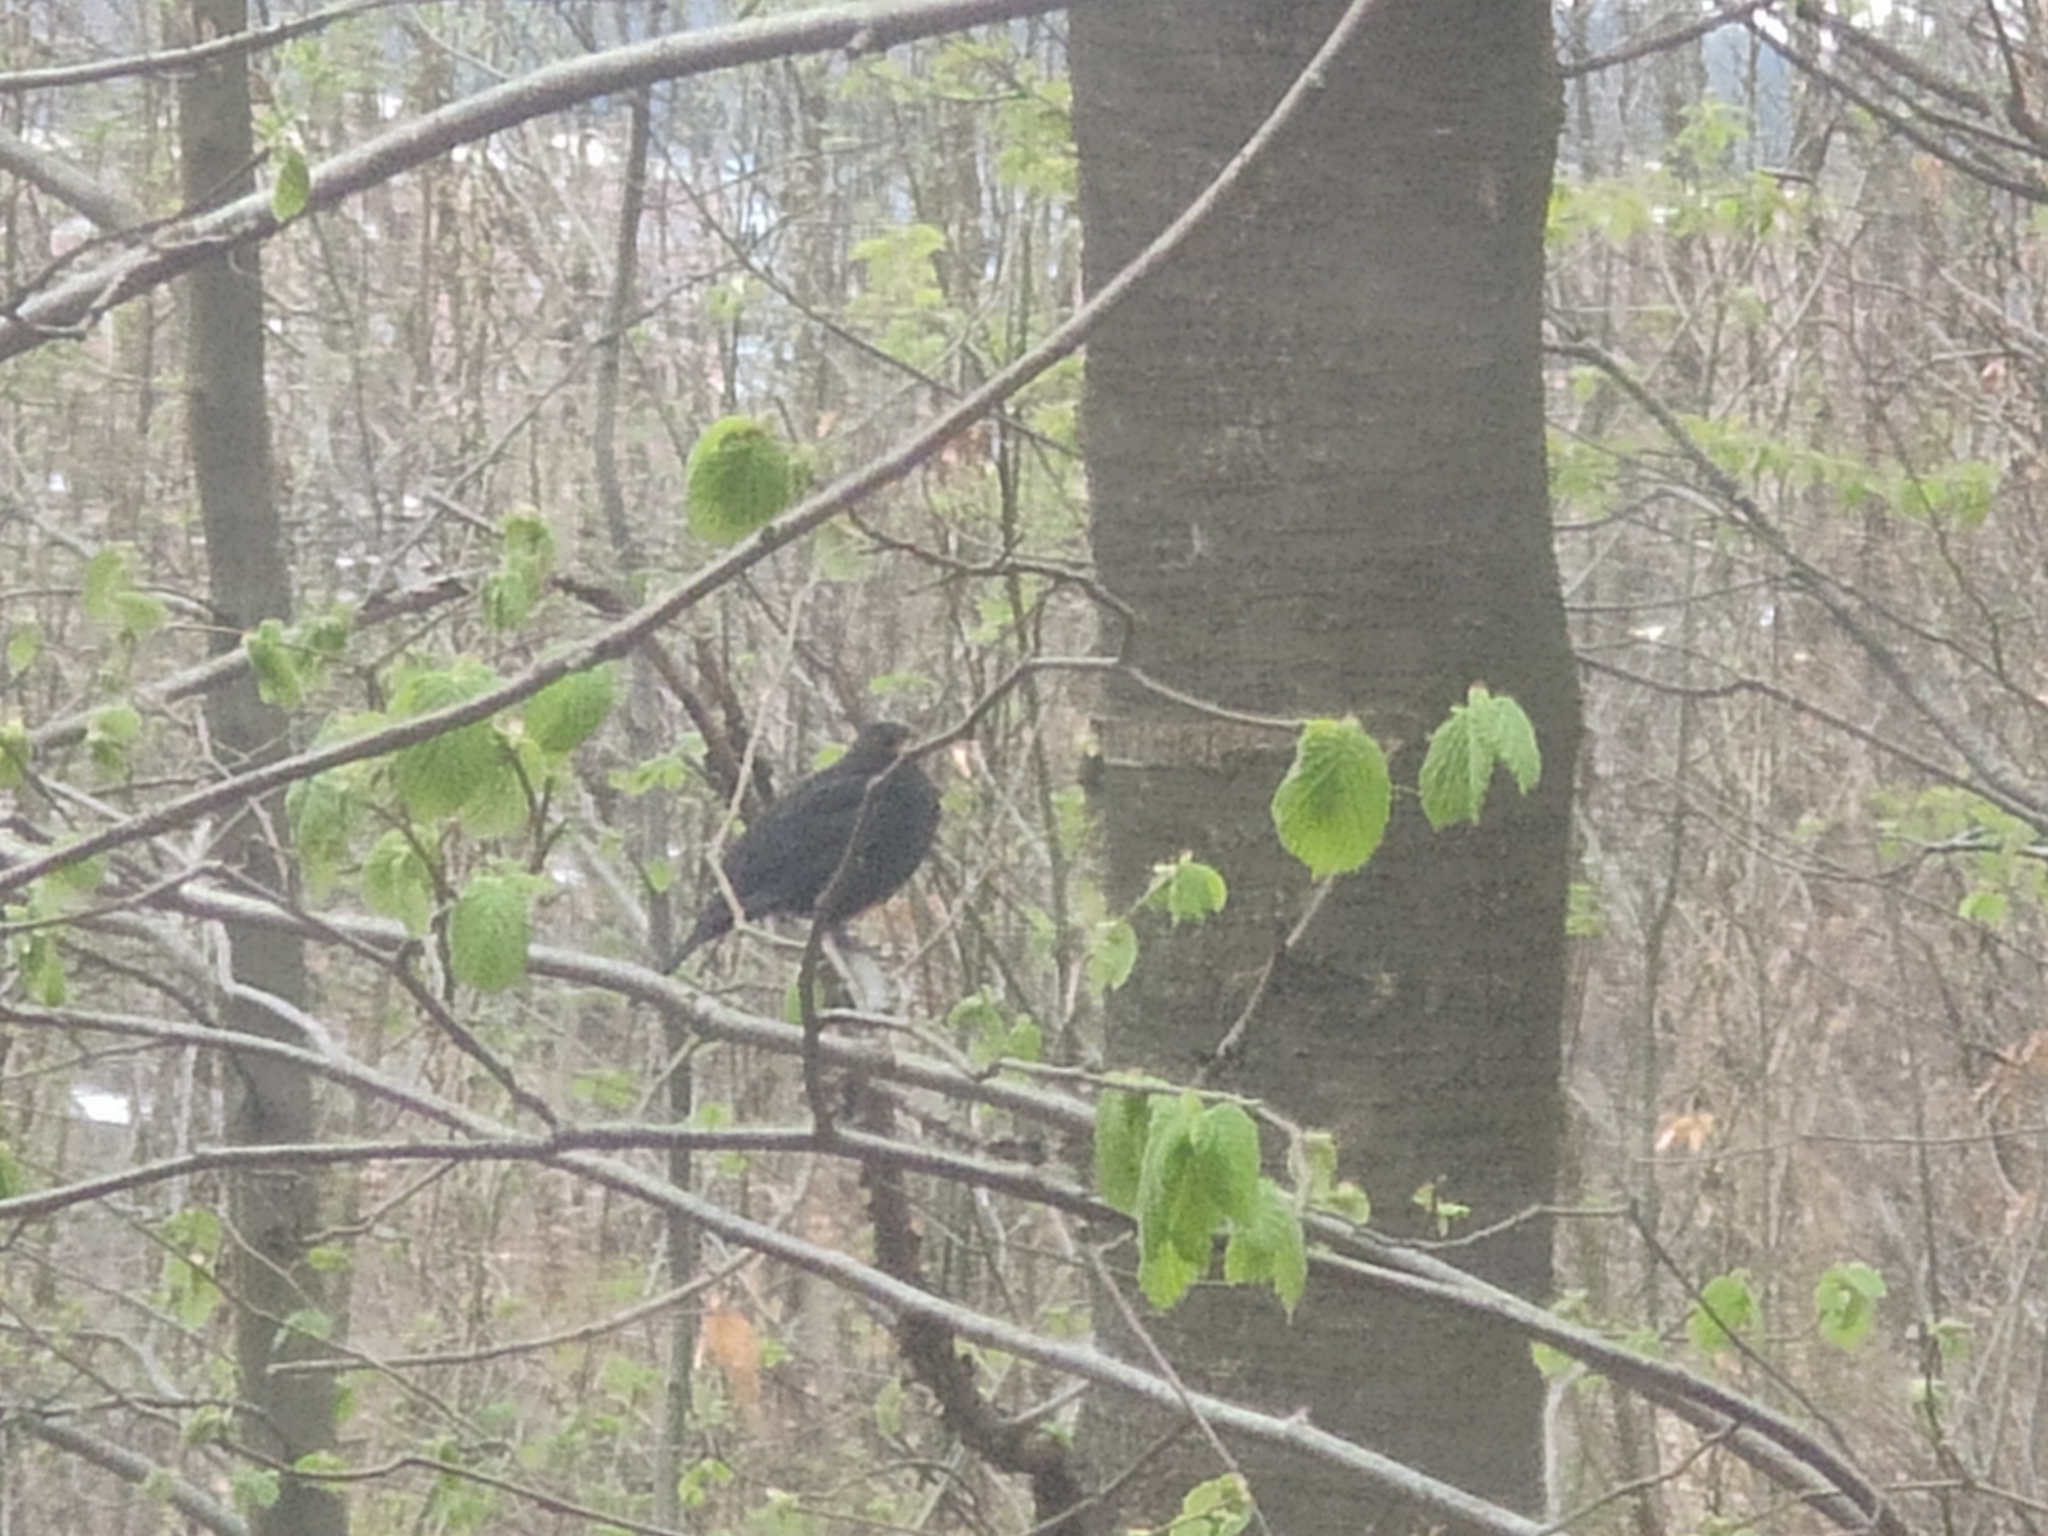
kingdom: Animalia
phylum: Chordata
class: Aves
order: Passeriformes
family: Turdidae
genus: Turdus
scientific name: Turdus merula
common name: Common blackbird
